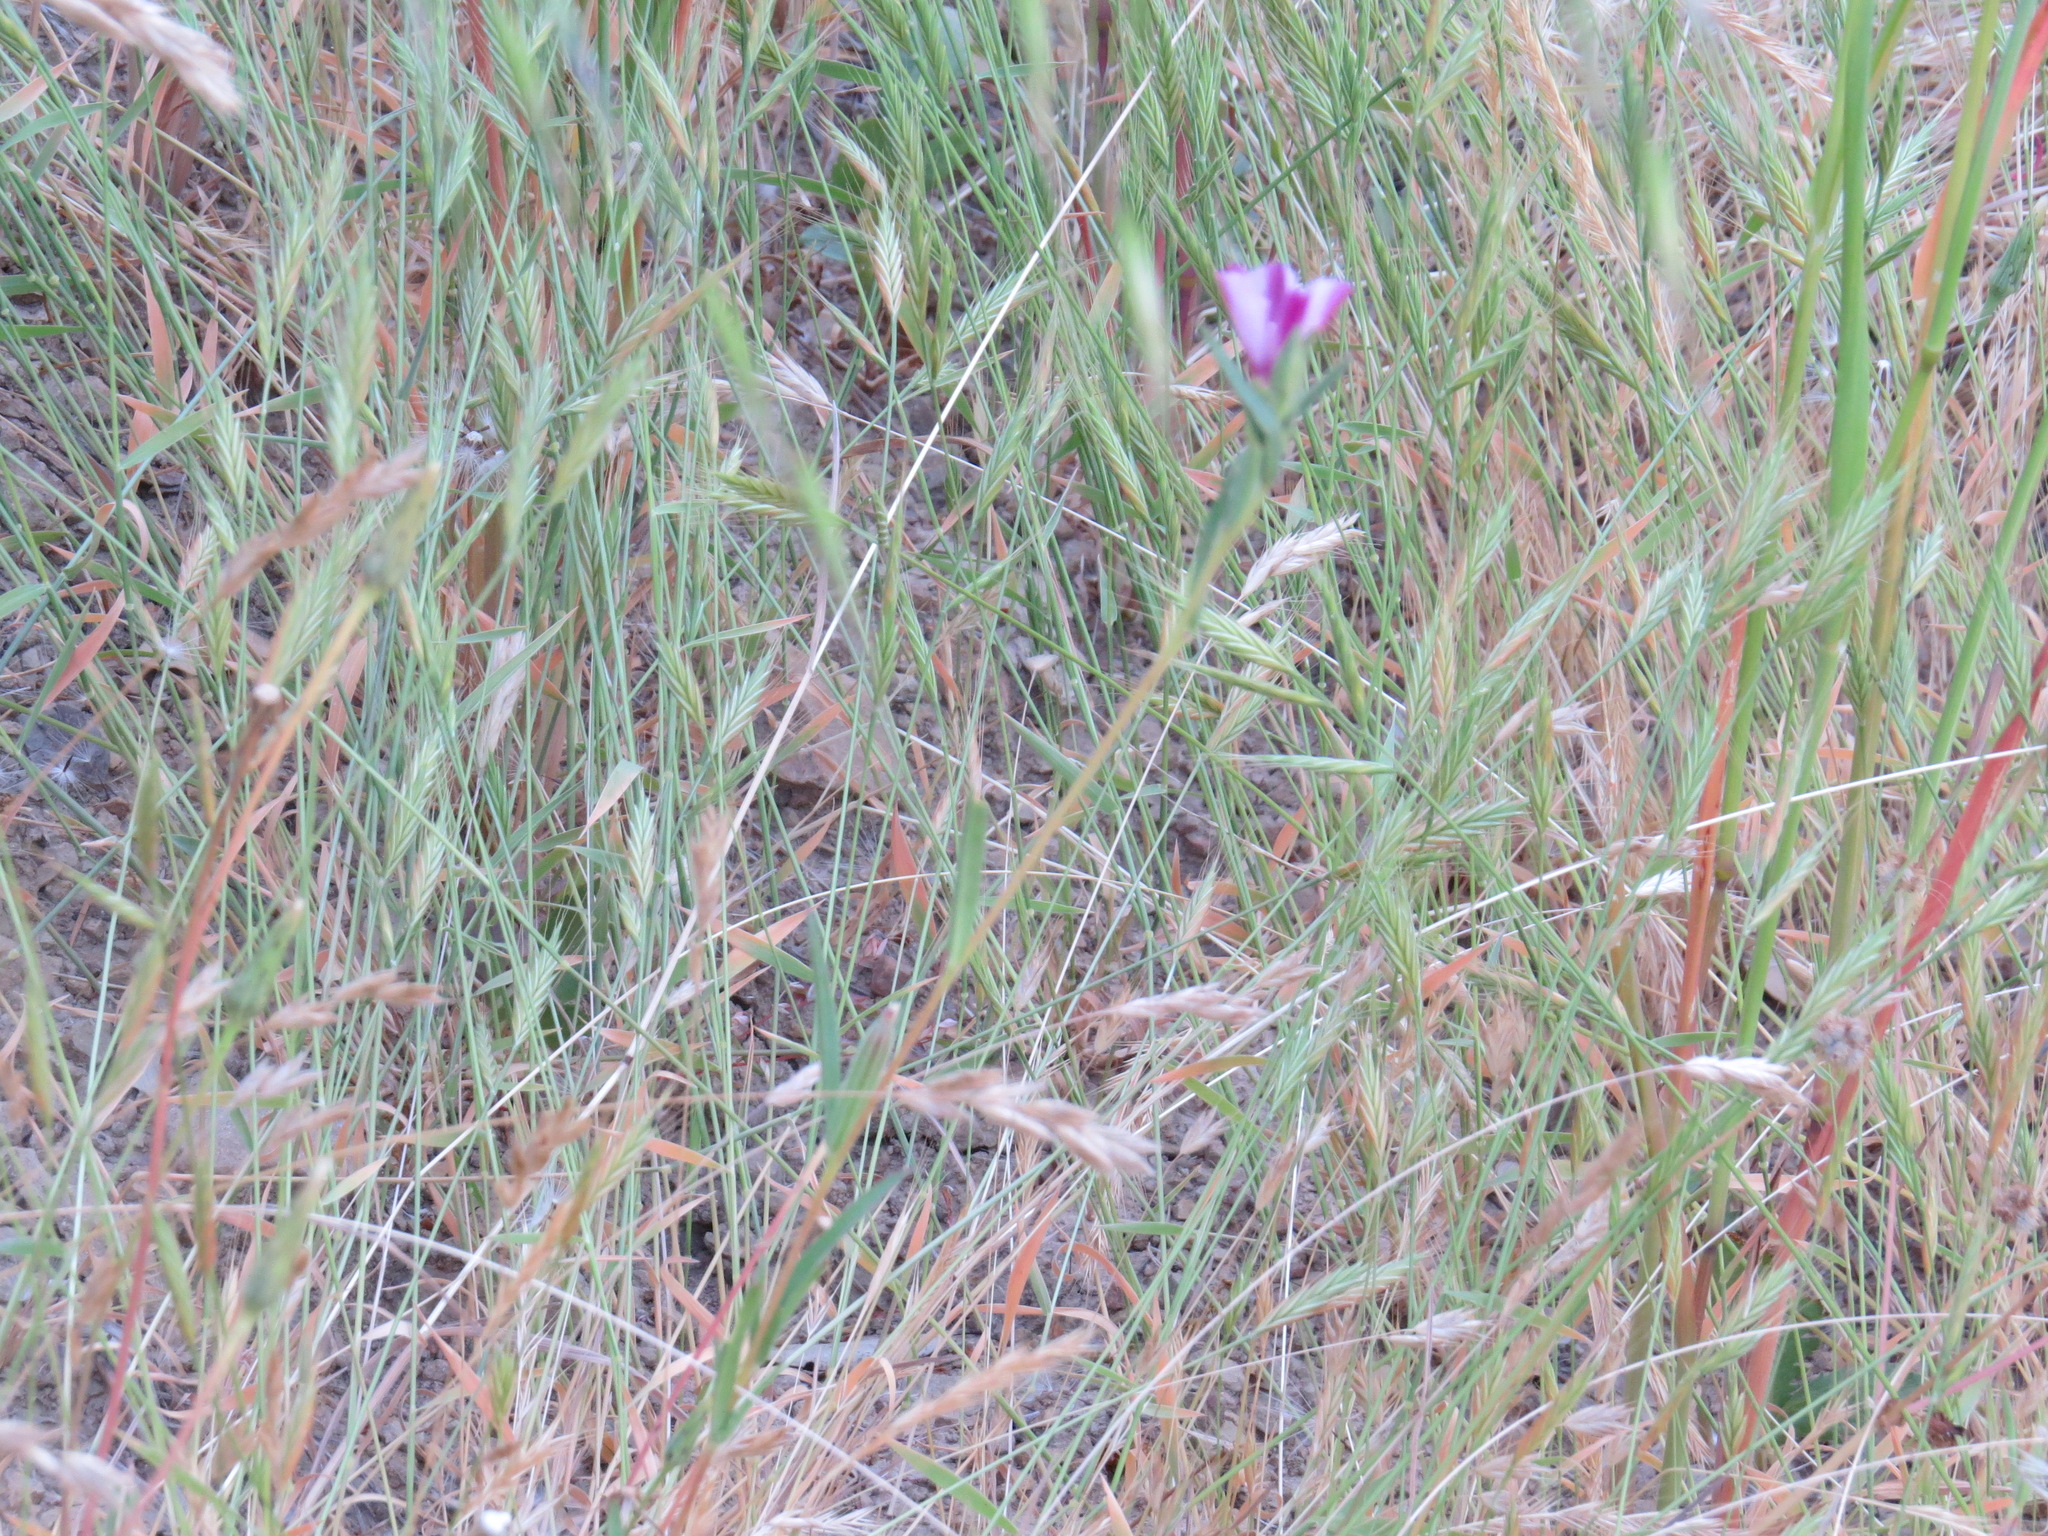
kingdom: Plantae
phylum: Tracheophyta
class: Magnoliopsida
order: Myrtales
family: Onagraceae
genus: Clarkia
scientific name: Clarkia purpurea
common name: Purple clarkia
